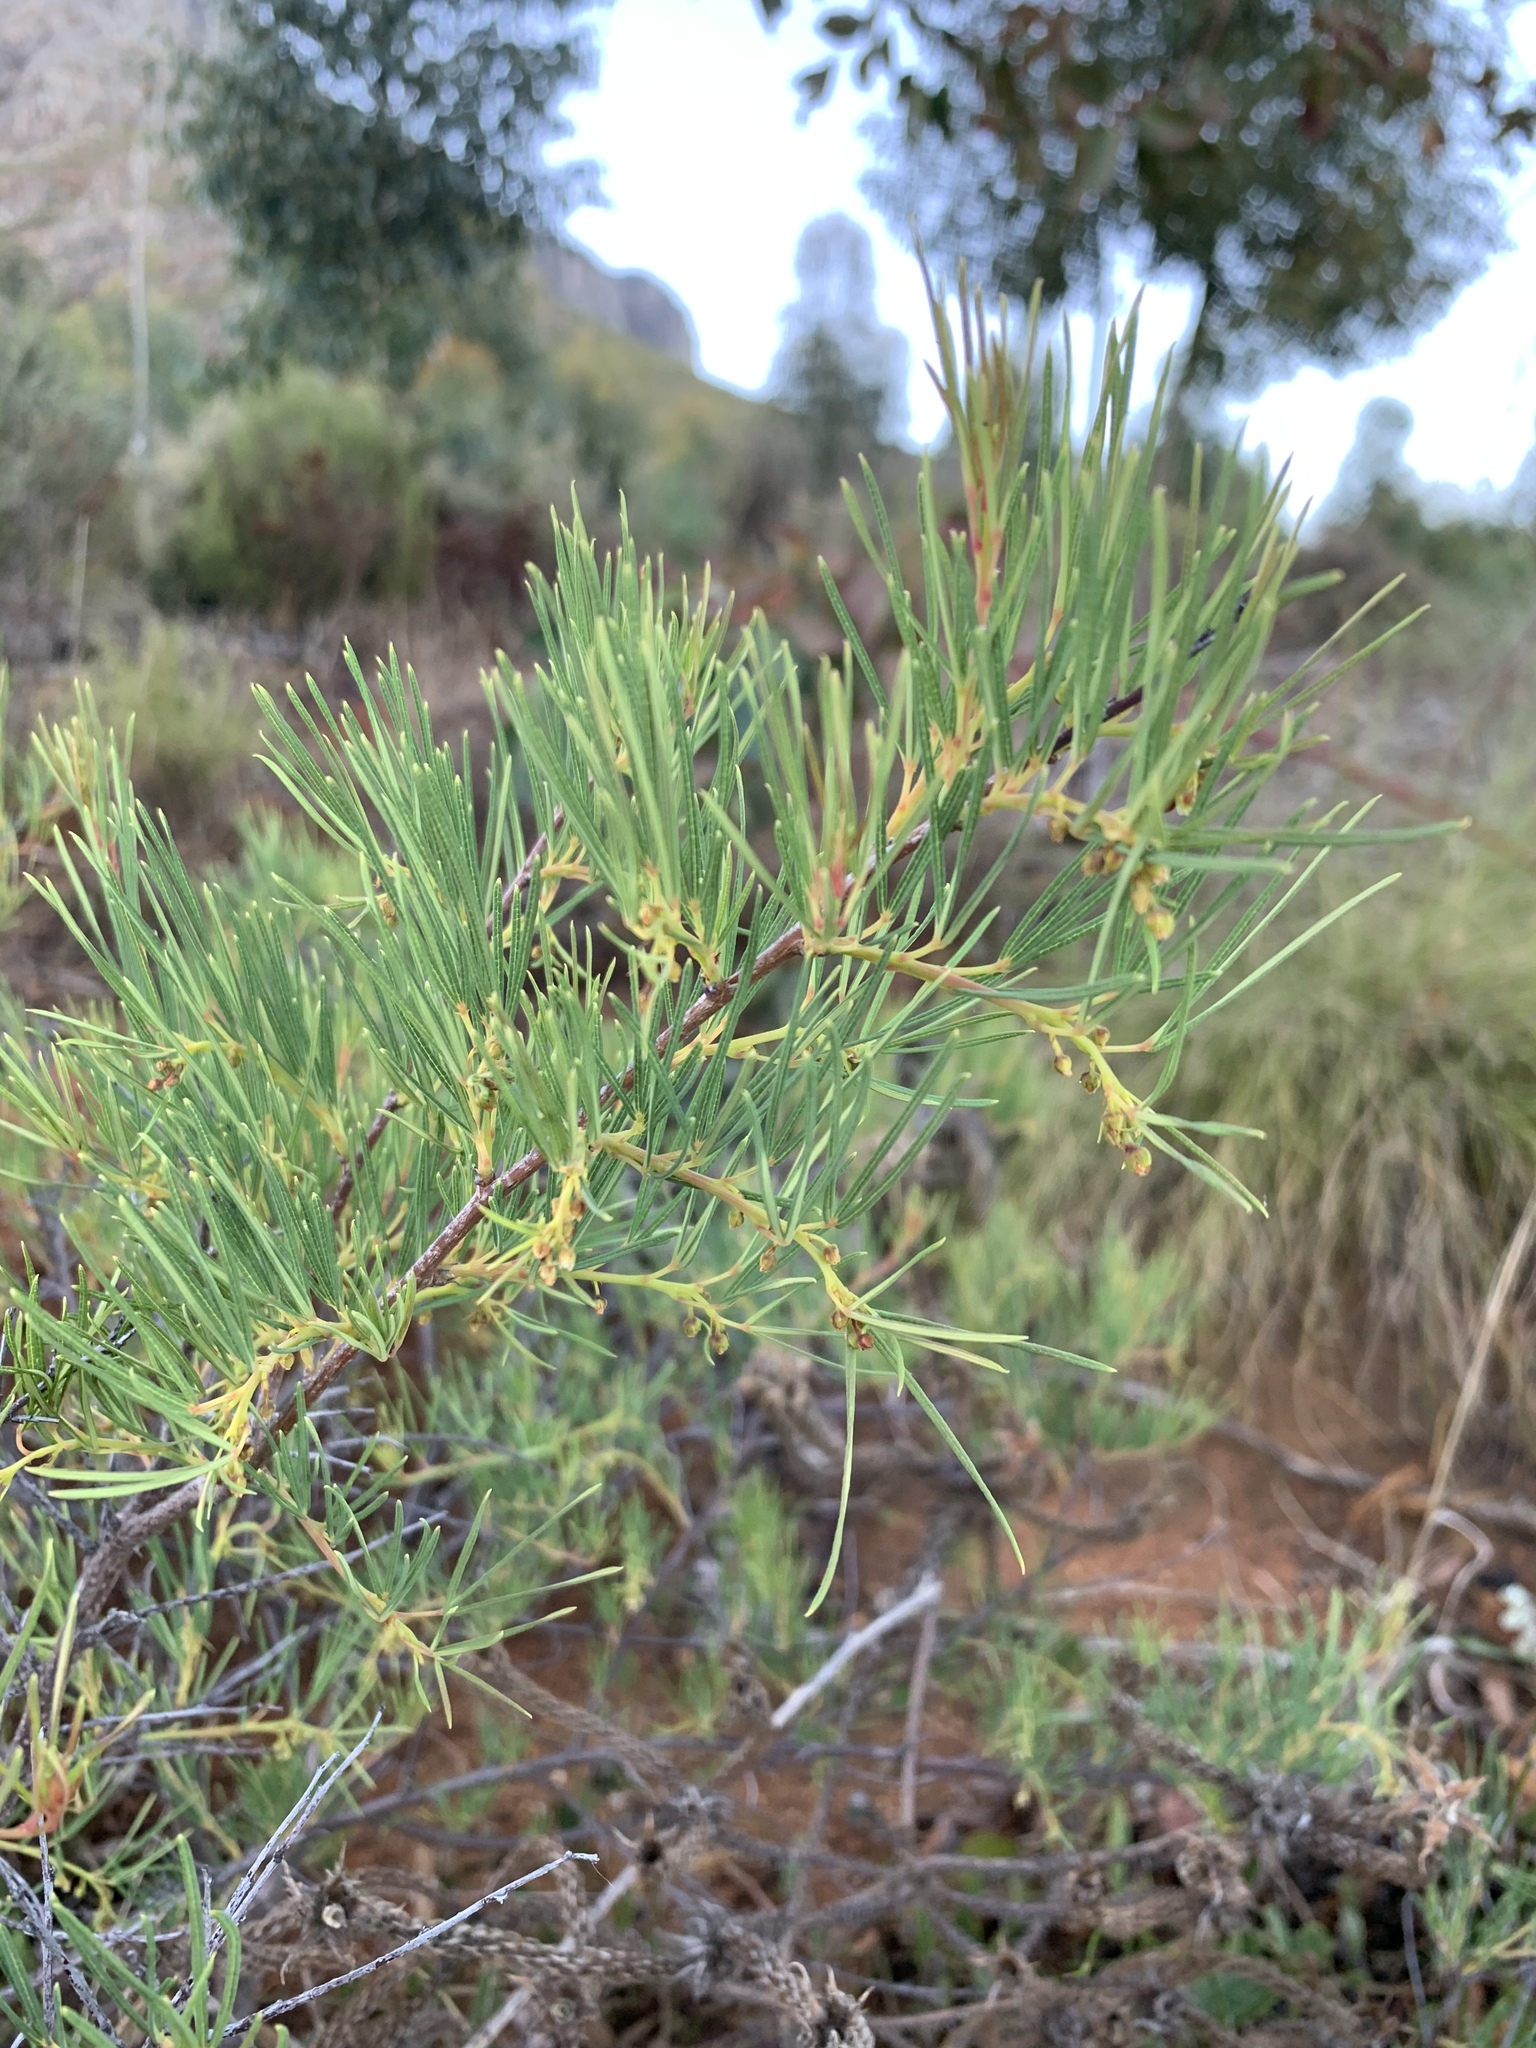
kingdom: Plantae
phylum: Tracheophyta
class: Magnoliopsida
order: Sapindales
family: Anacardiaceae
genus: Searsia
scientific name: Searsia rosmarinifolia
